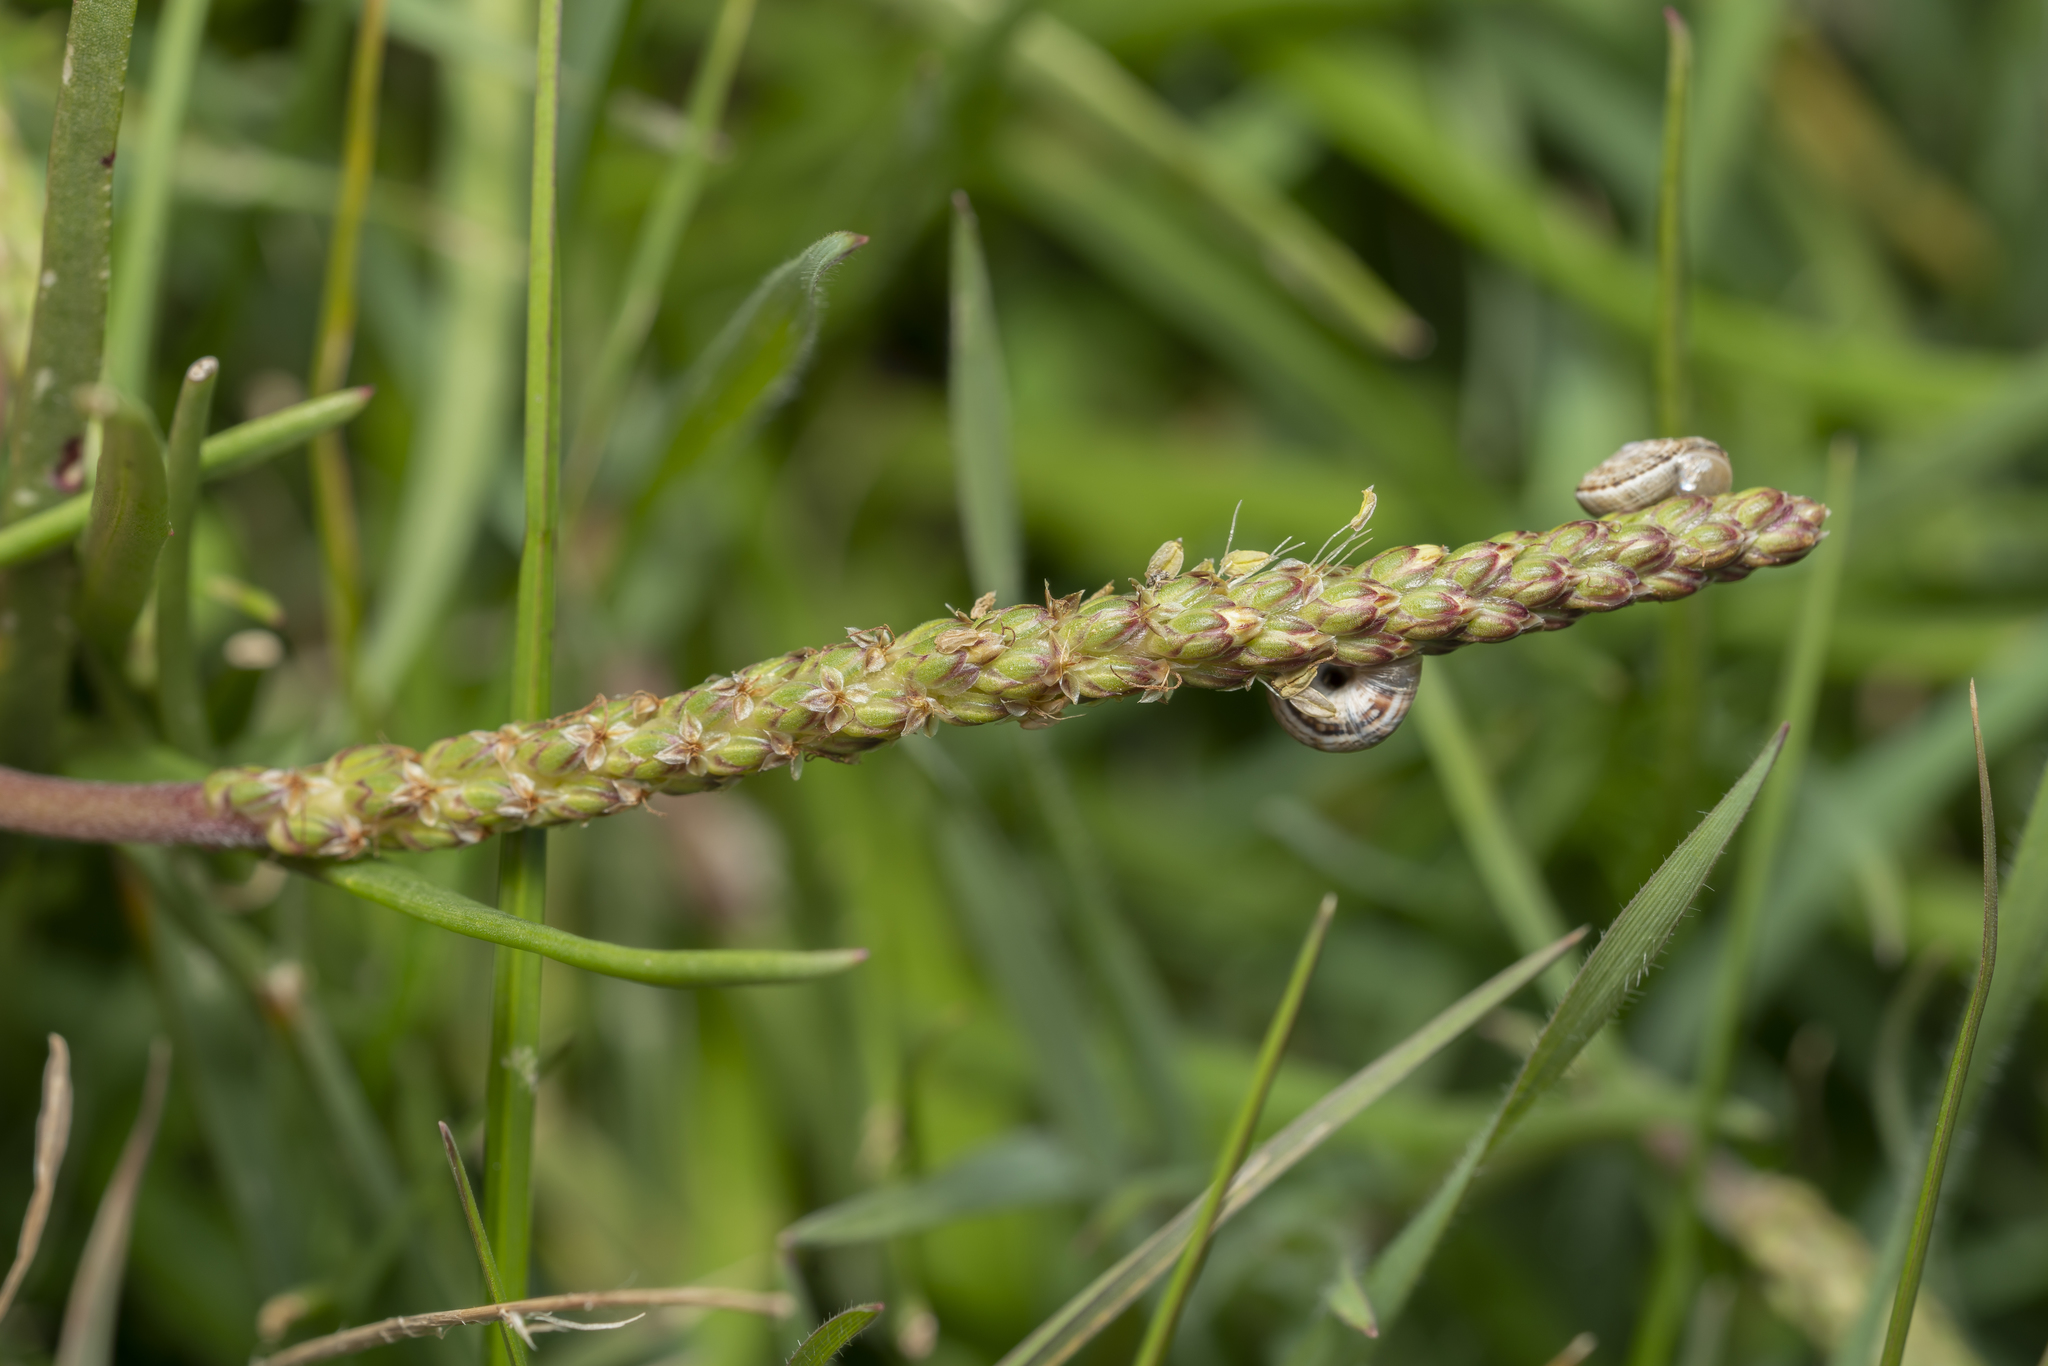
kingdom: Plantae
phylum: Tracheophyta
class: Magnoliopsida
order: Lamiales
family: Plantaginaceae
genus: Plantago
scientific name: Plantago crassifolia
